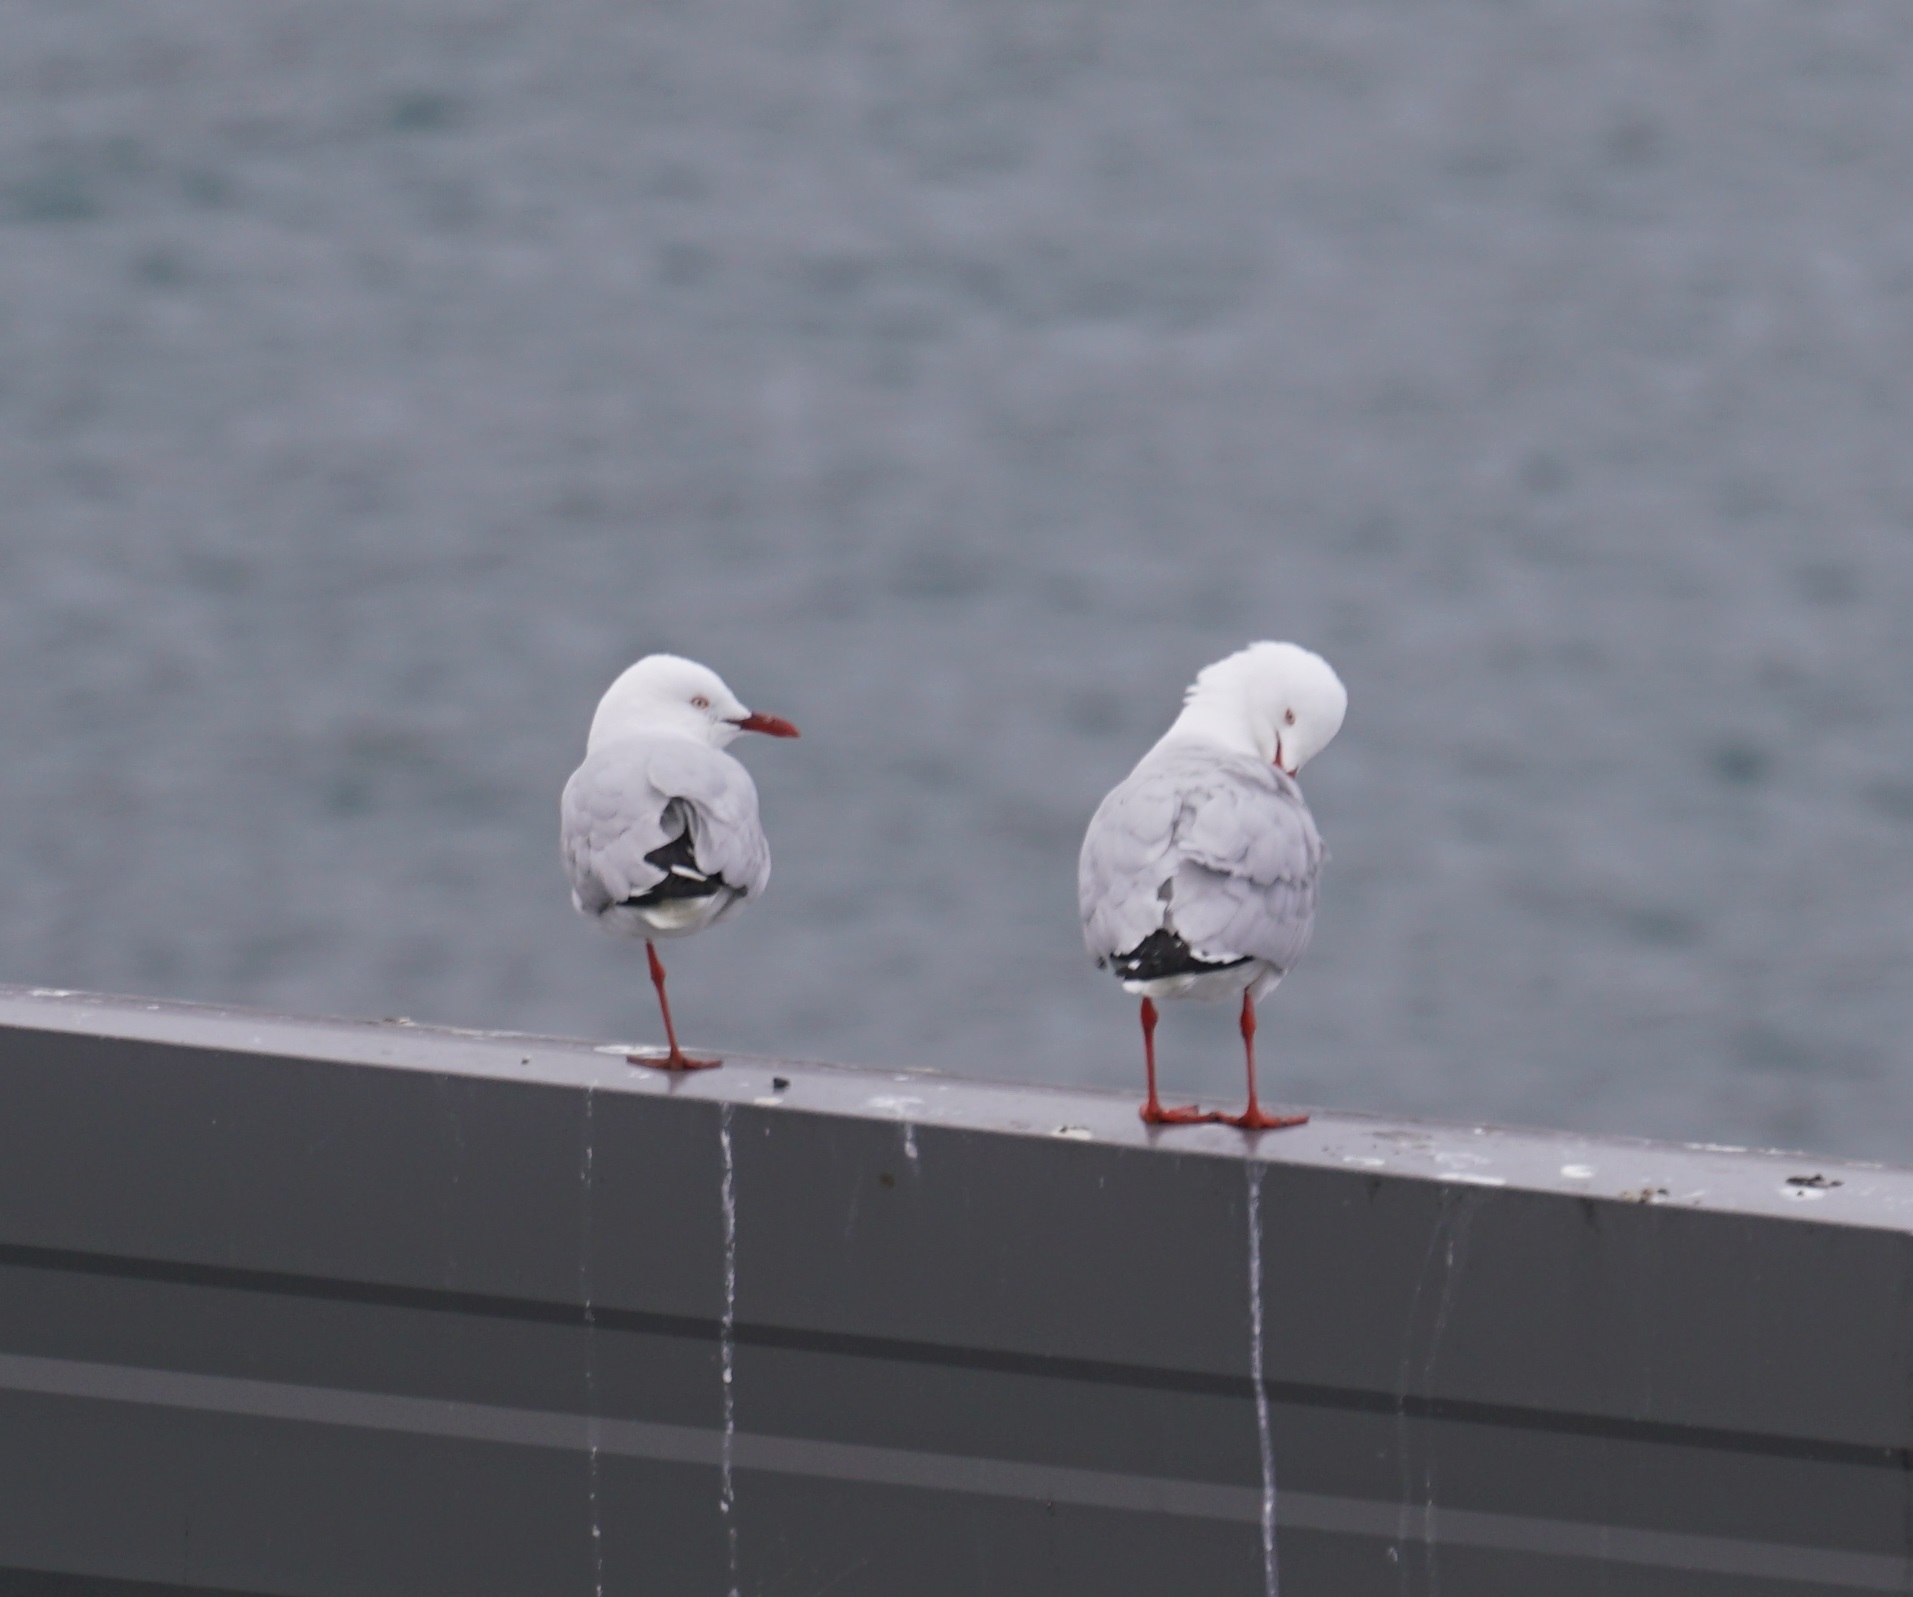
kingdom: Animalia
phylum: Chordata
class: Aves
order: Charadriiformes
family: Laridae
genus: Chroicocephalus
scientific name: Chroicocephalus novaehollandiae
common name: Silver gull
